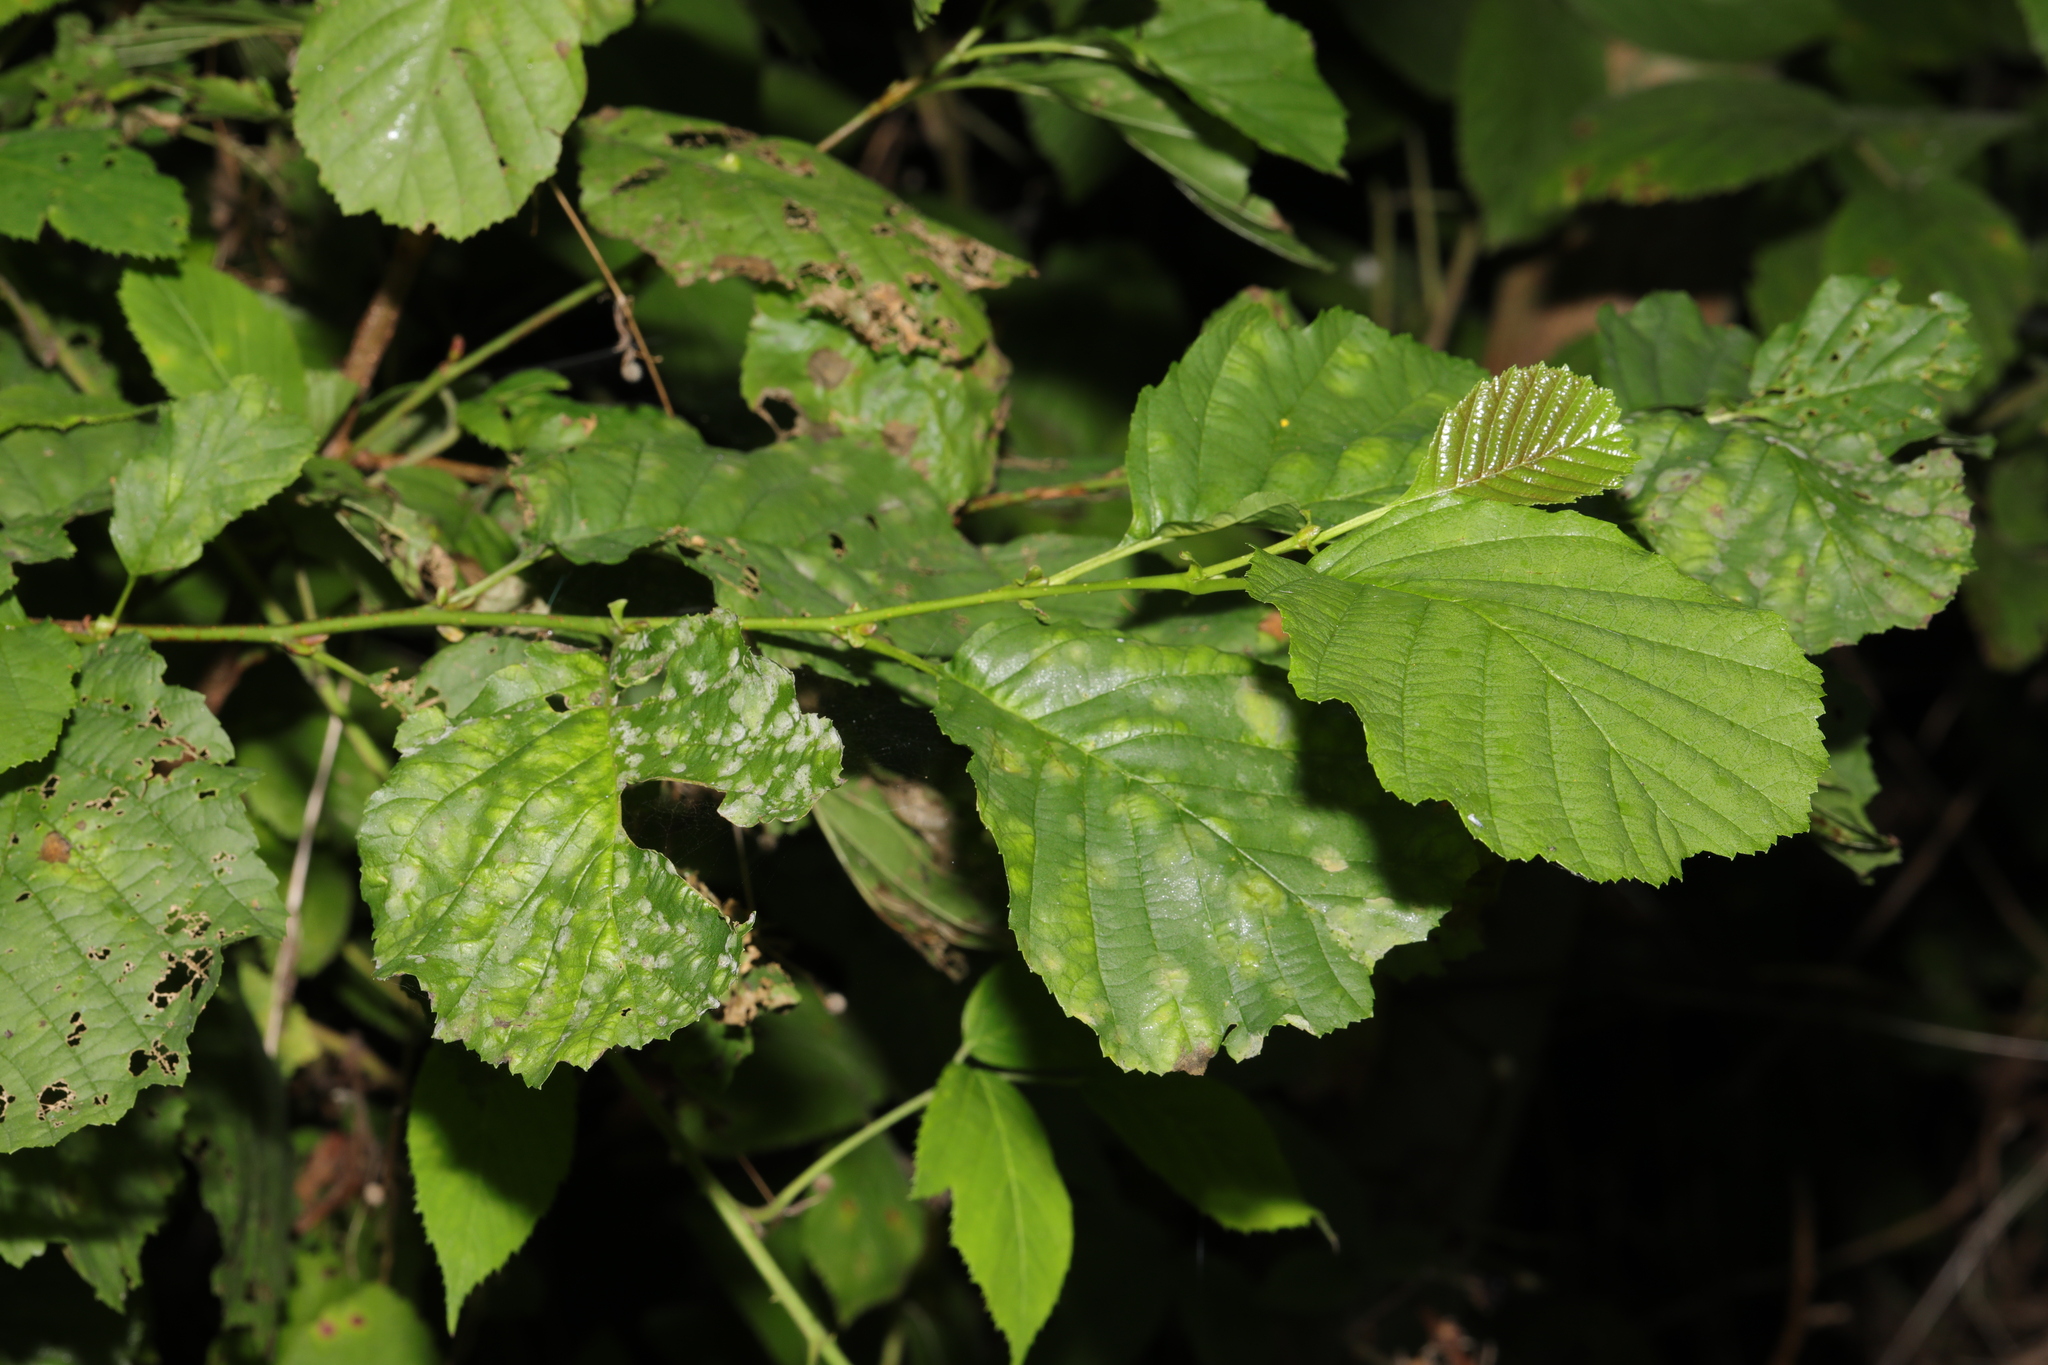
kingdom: Plantae
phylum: Tracheophyta
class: Magnoliopsida
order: Fagales
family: Betulaceae
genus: Alnus
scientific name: Alnus glutinosa
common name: Black alder
